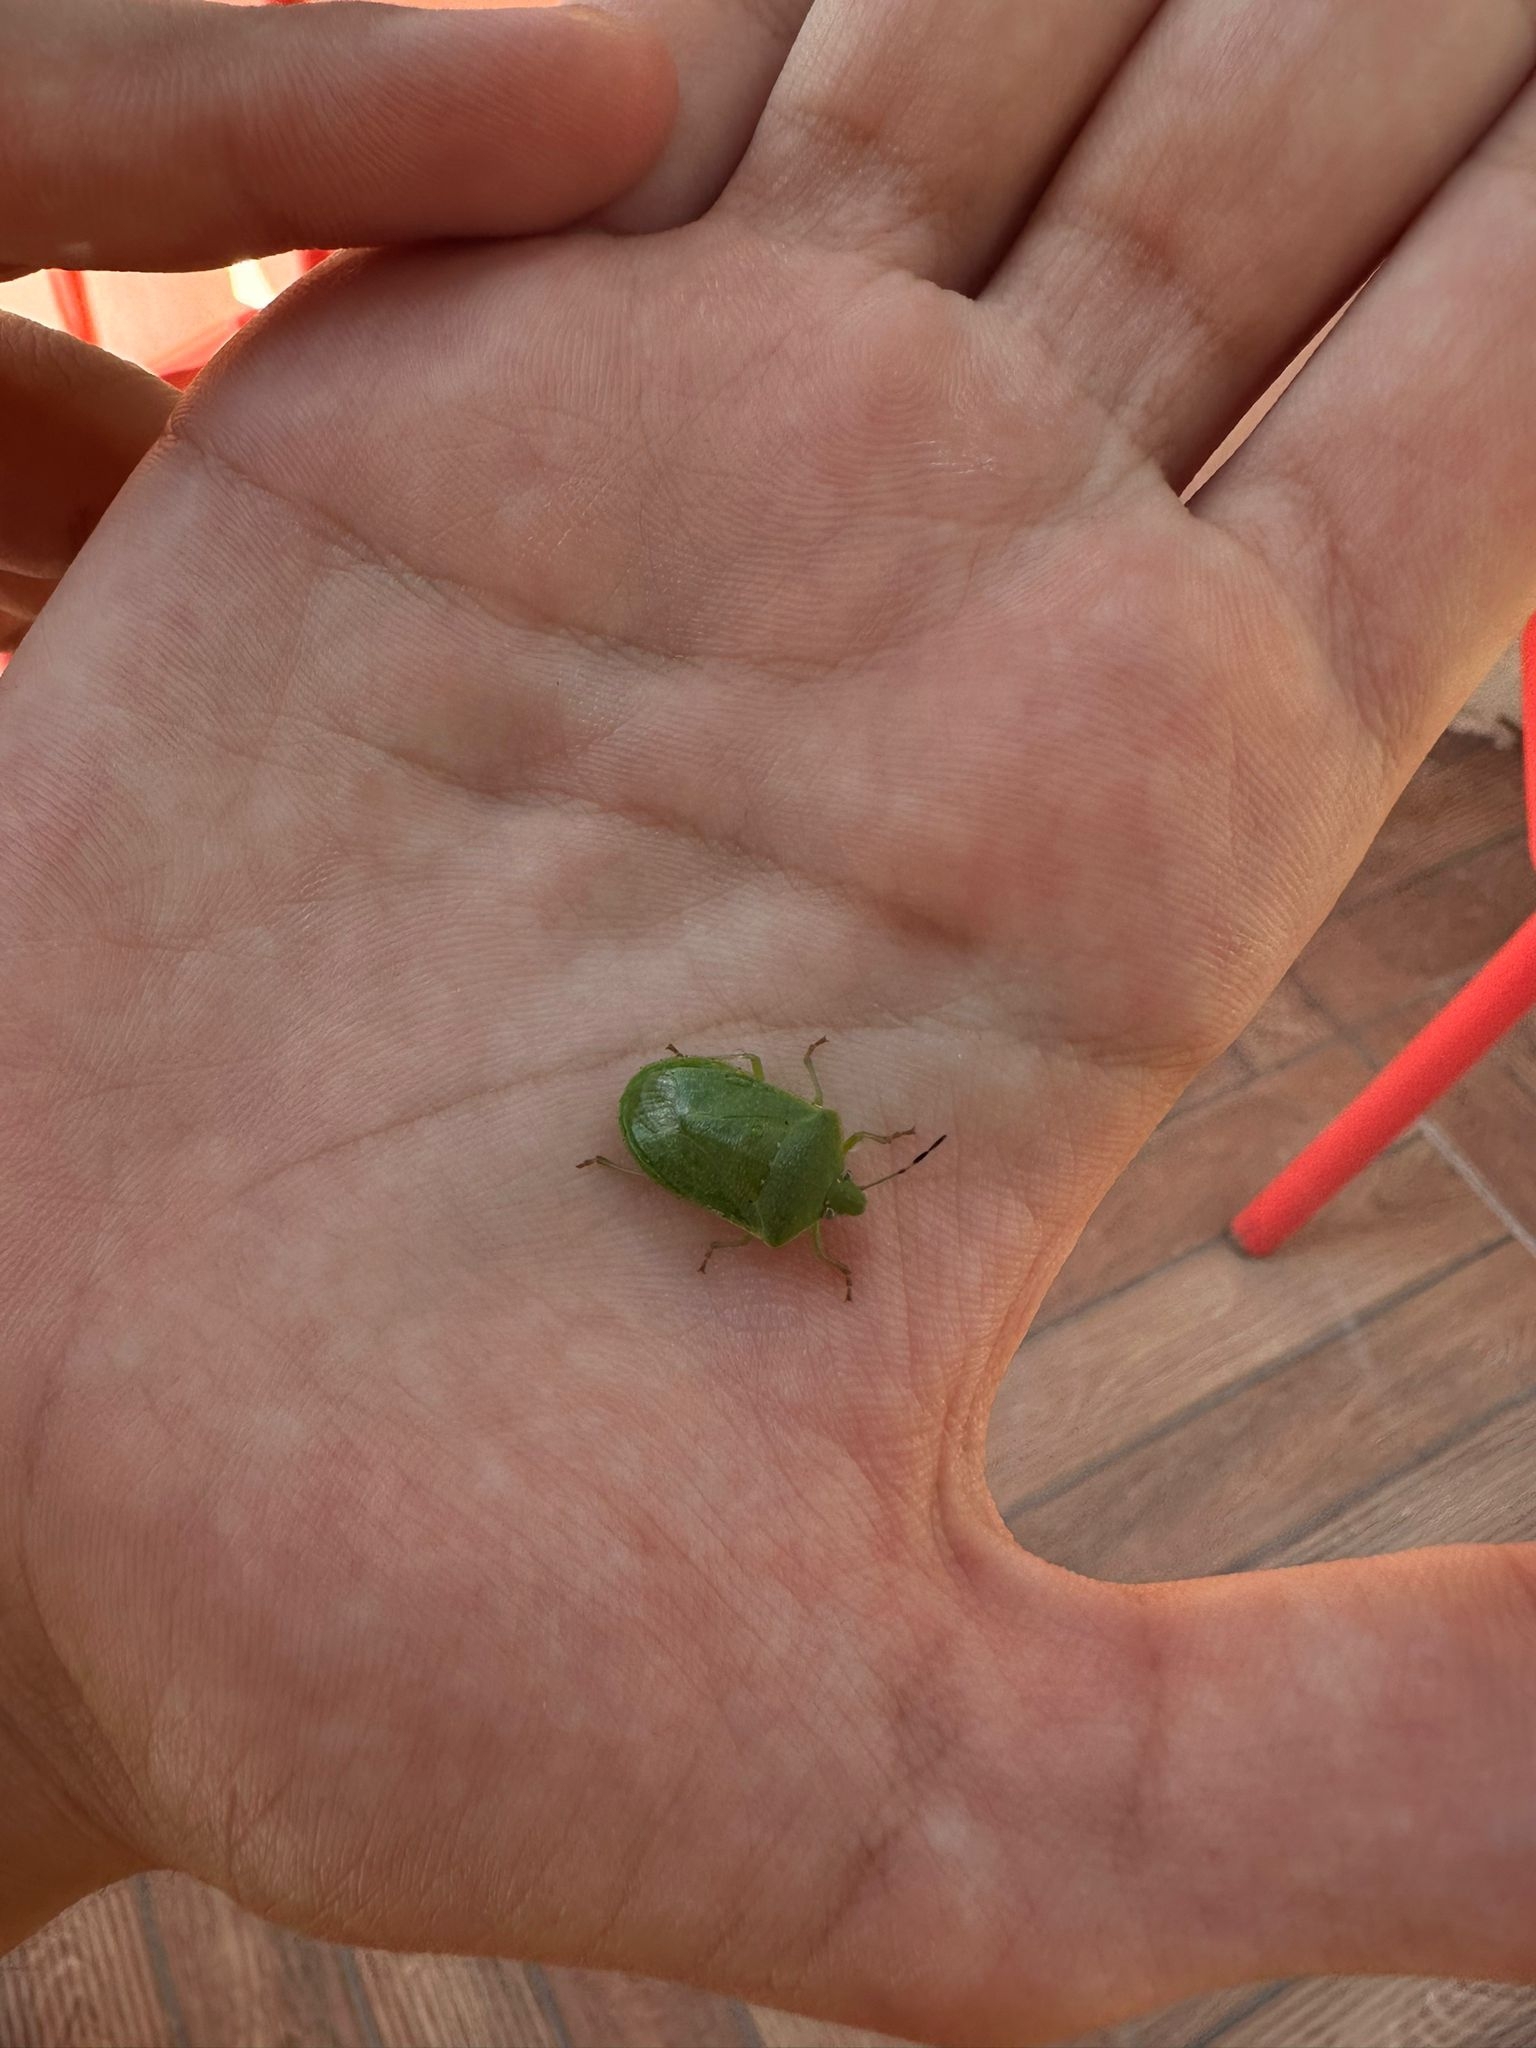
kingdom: Animalia
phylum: Arthropoda
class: Insecta
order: Hemiptera
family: Pentatomidae
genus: Nezara
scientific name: Nezara viridula
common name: Southern green stink bug
